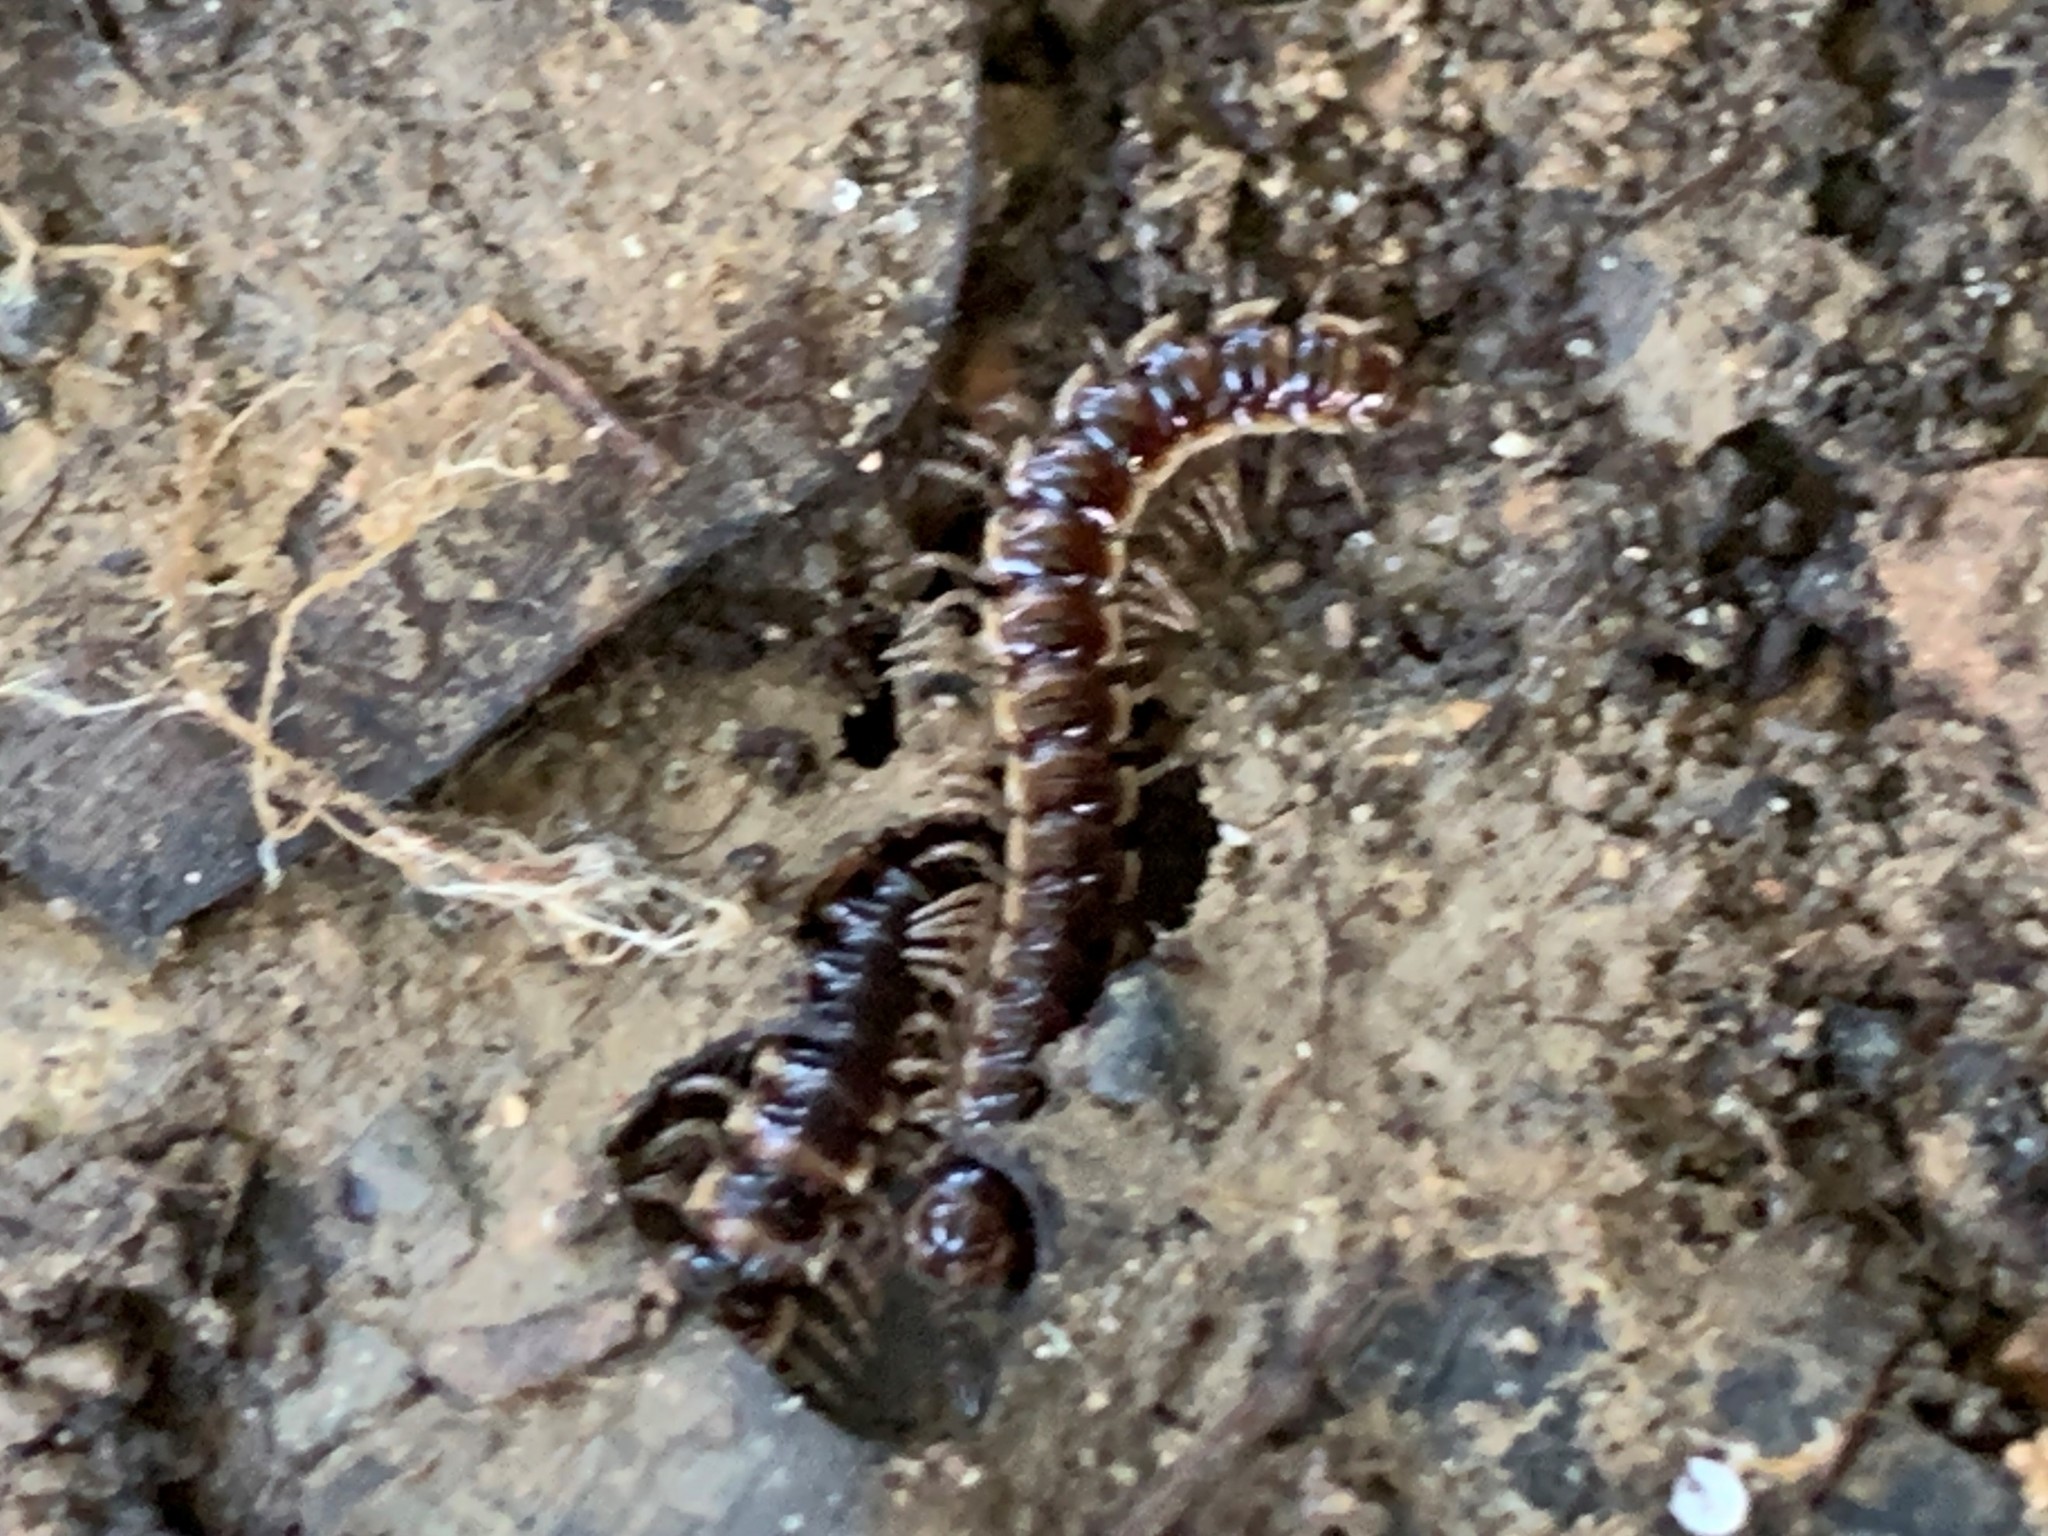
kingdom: Animalia
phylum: Arthropoda
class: Diplopoda
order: Polydesmida
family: Paradoxosomatidae
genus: Oxidus
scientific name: Oxidus gracilis
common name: Greenhouse millipede
